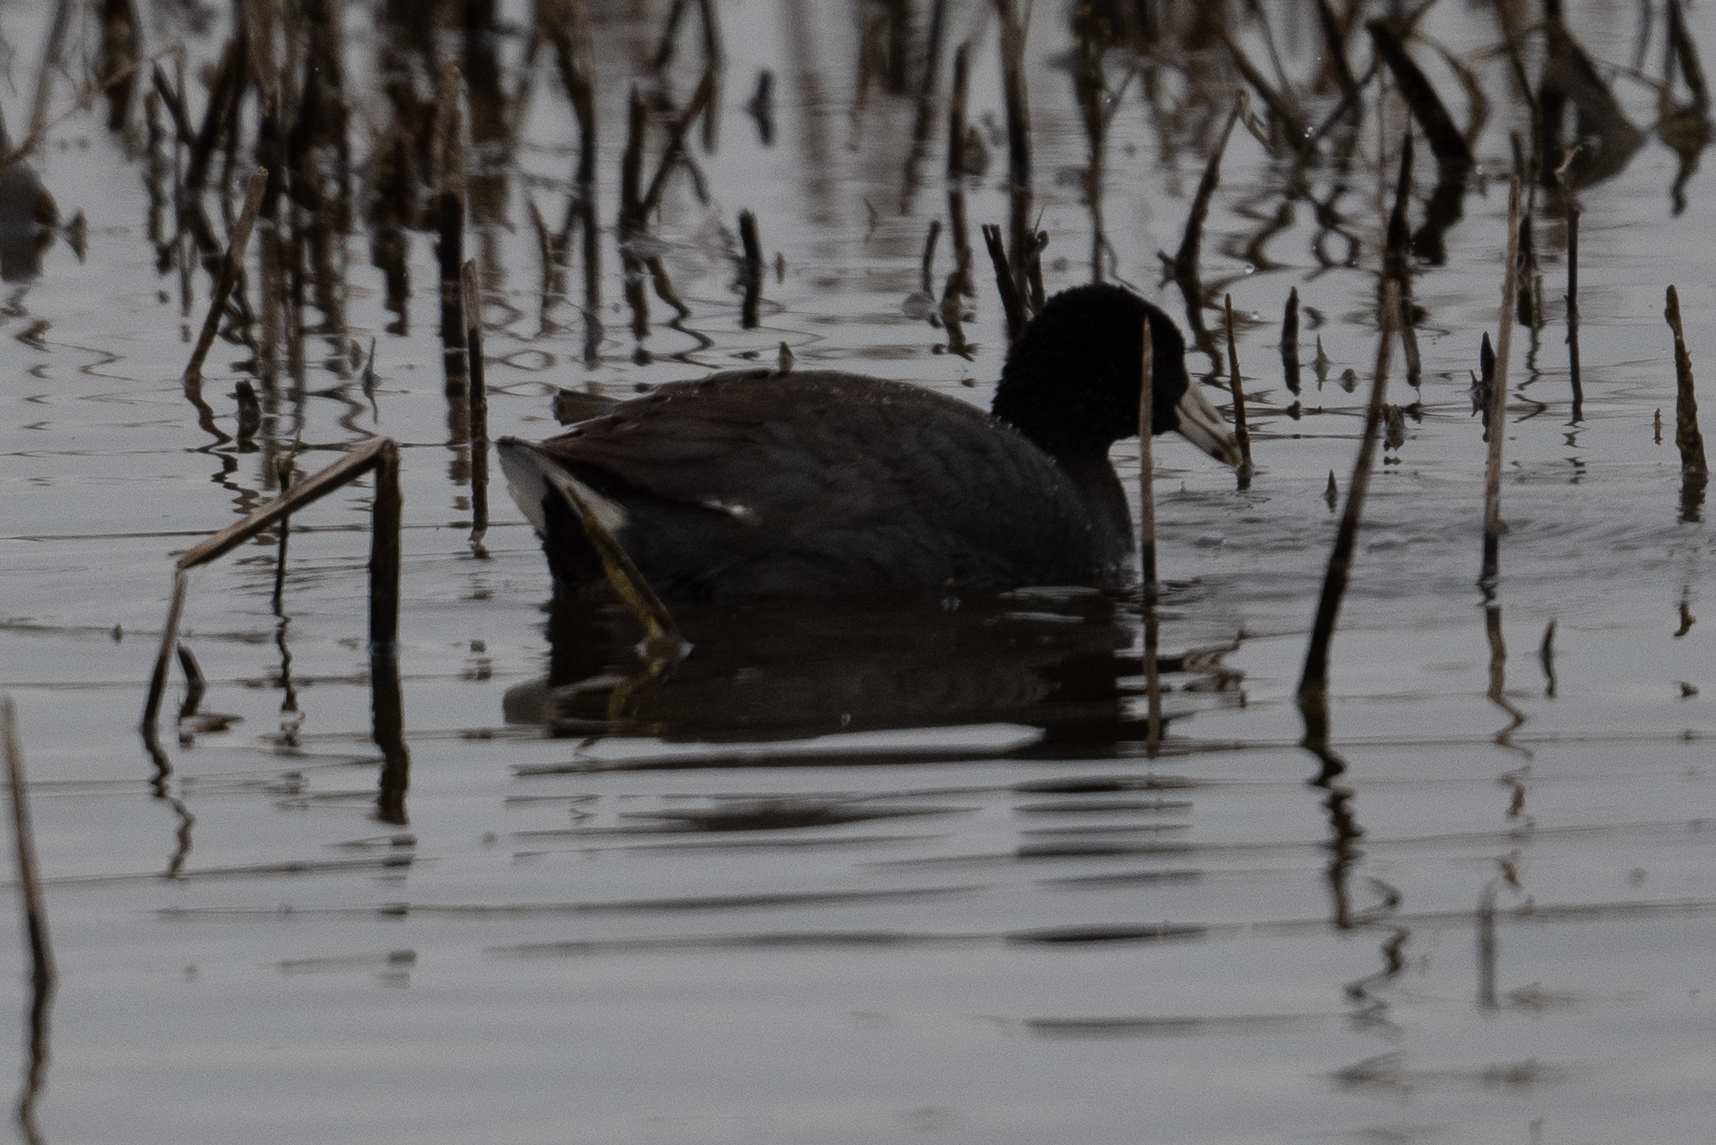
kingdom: Animalia
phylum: Chordata
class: Aves
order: Gruiformes
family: Rallidae
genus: Fulica
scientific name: Fulica americana
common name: American coot
